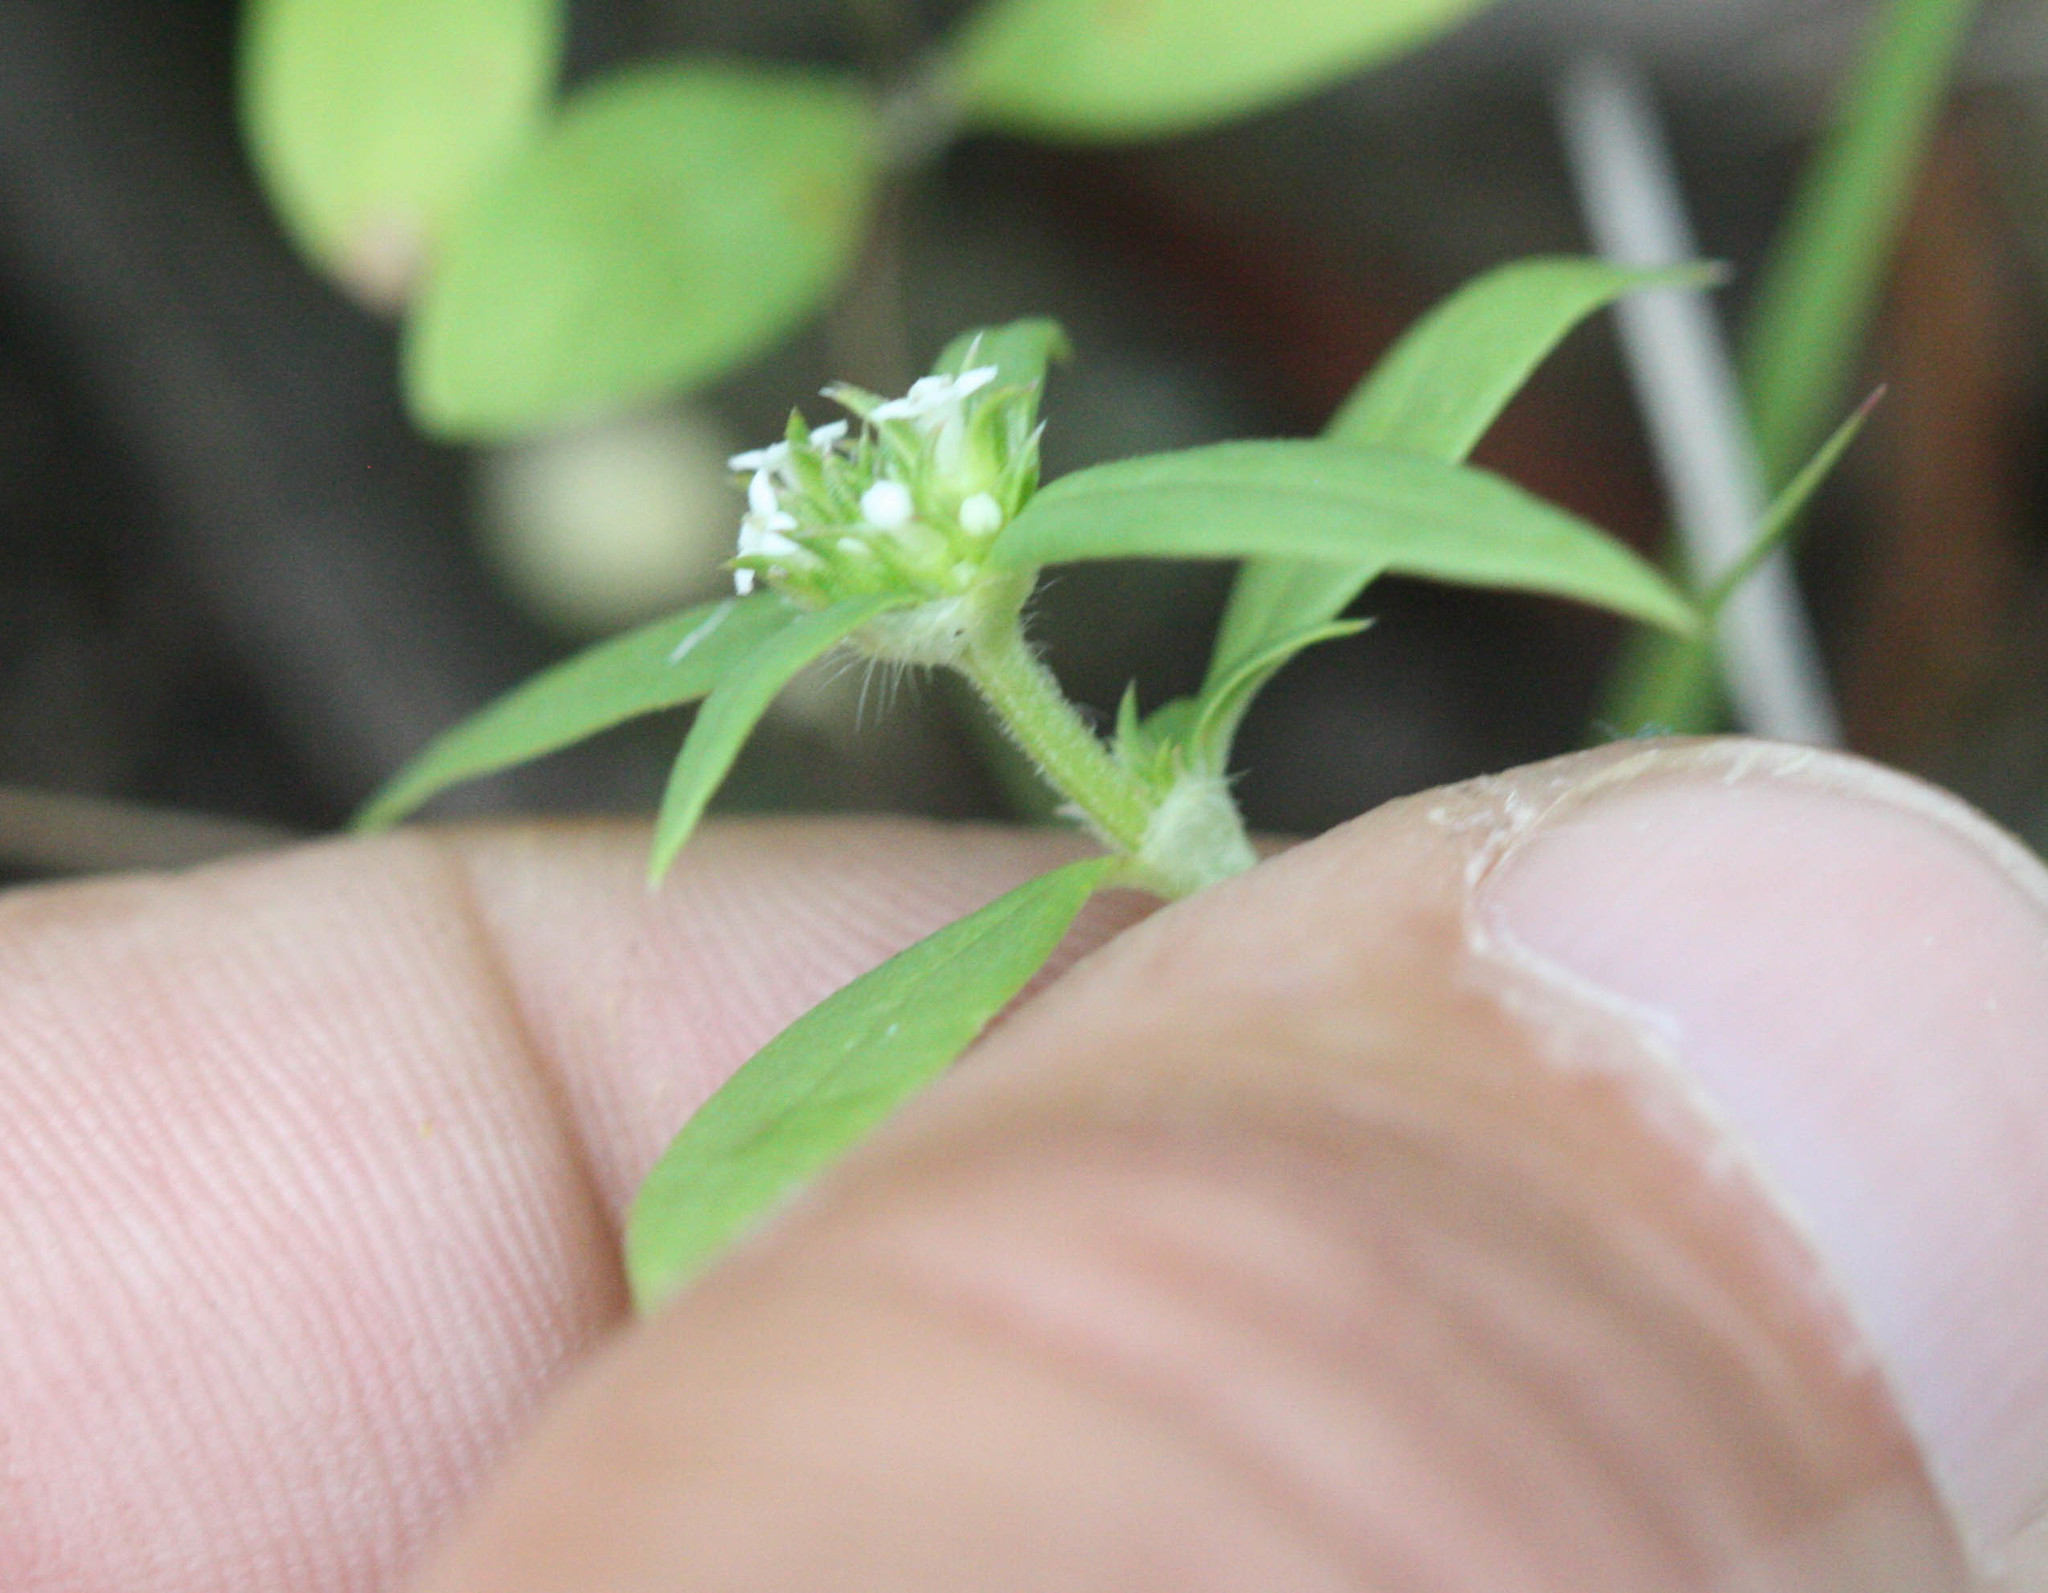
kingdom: Plantae
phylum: Tracheophyta
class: Magnoliopsida
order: Gentianales
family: Rubiaceae
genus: Mitracarpus
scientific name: Mitracarpus breviflorus
